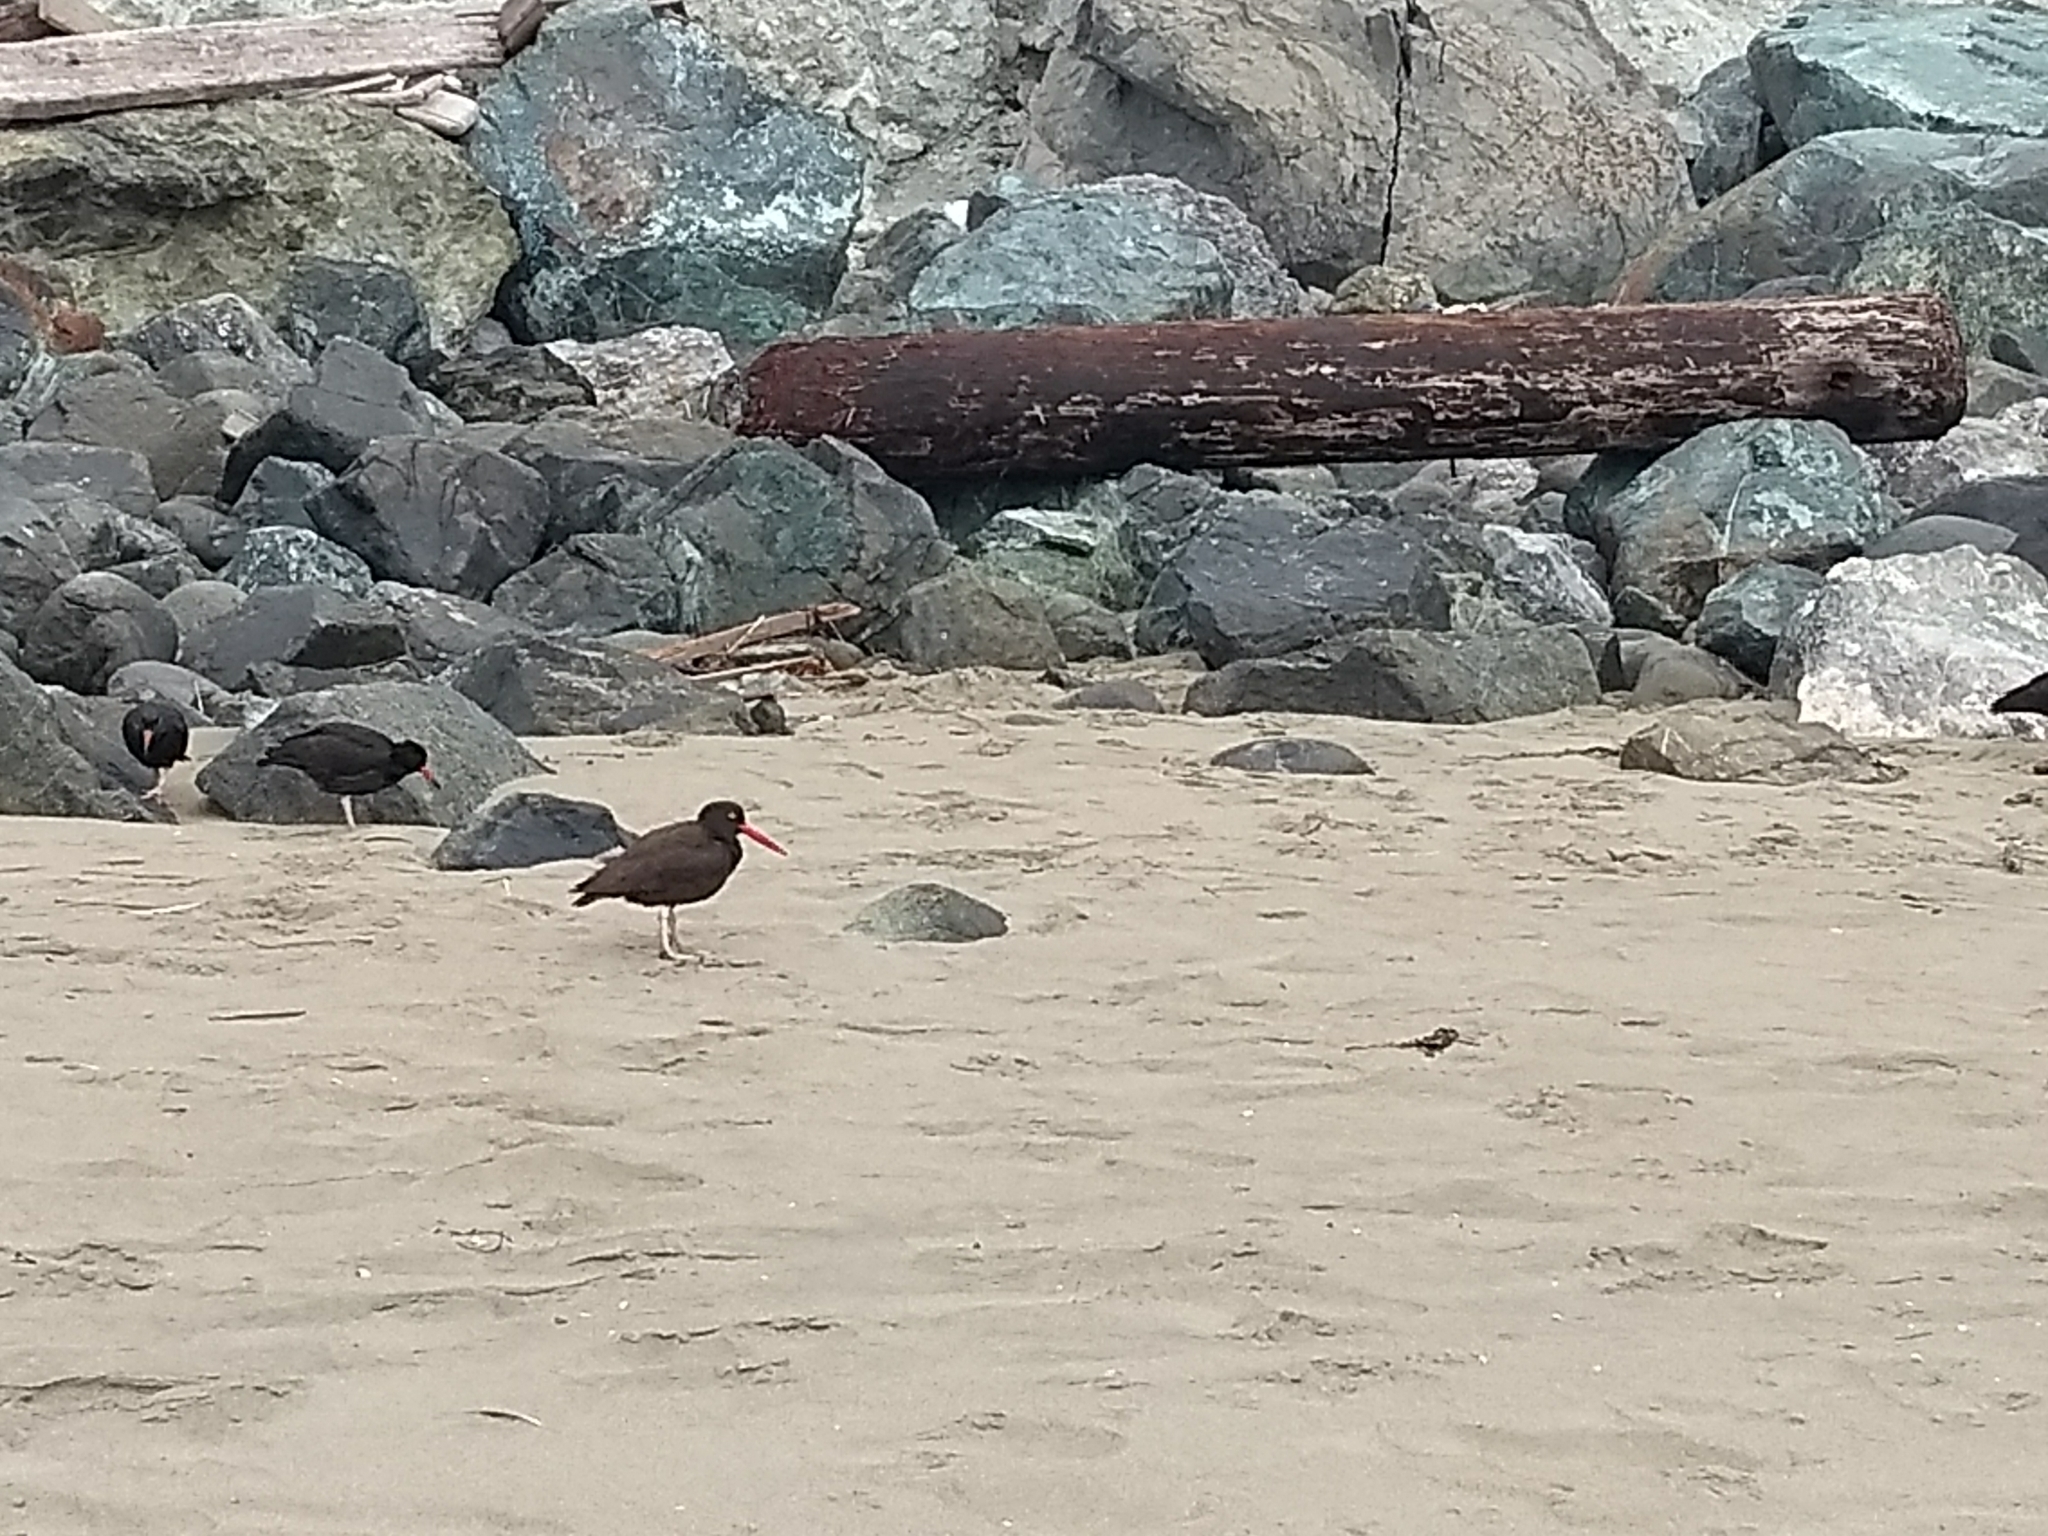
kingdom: Animalia
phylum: Chordata
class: Aves
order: Charadriiformes
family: Haematopodidae
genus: Haematopus
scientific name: Haematopus bachmani
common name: Black oystercatcher
